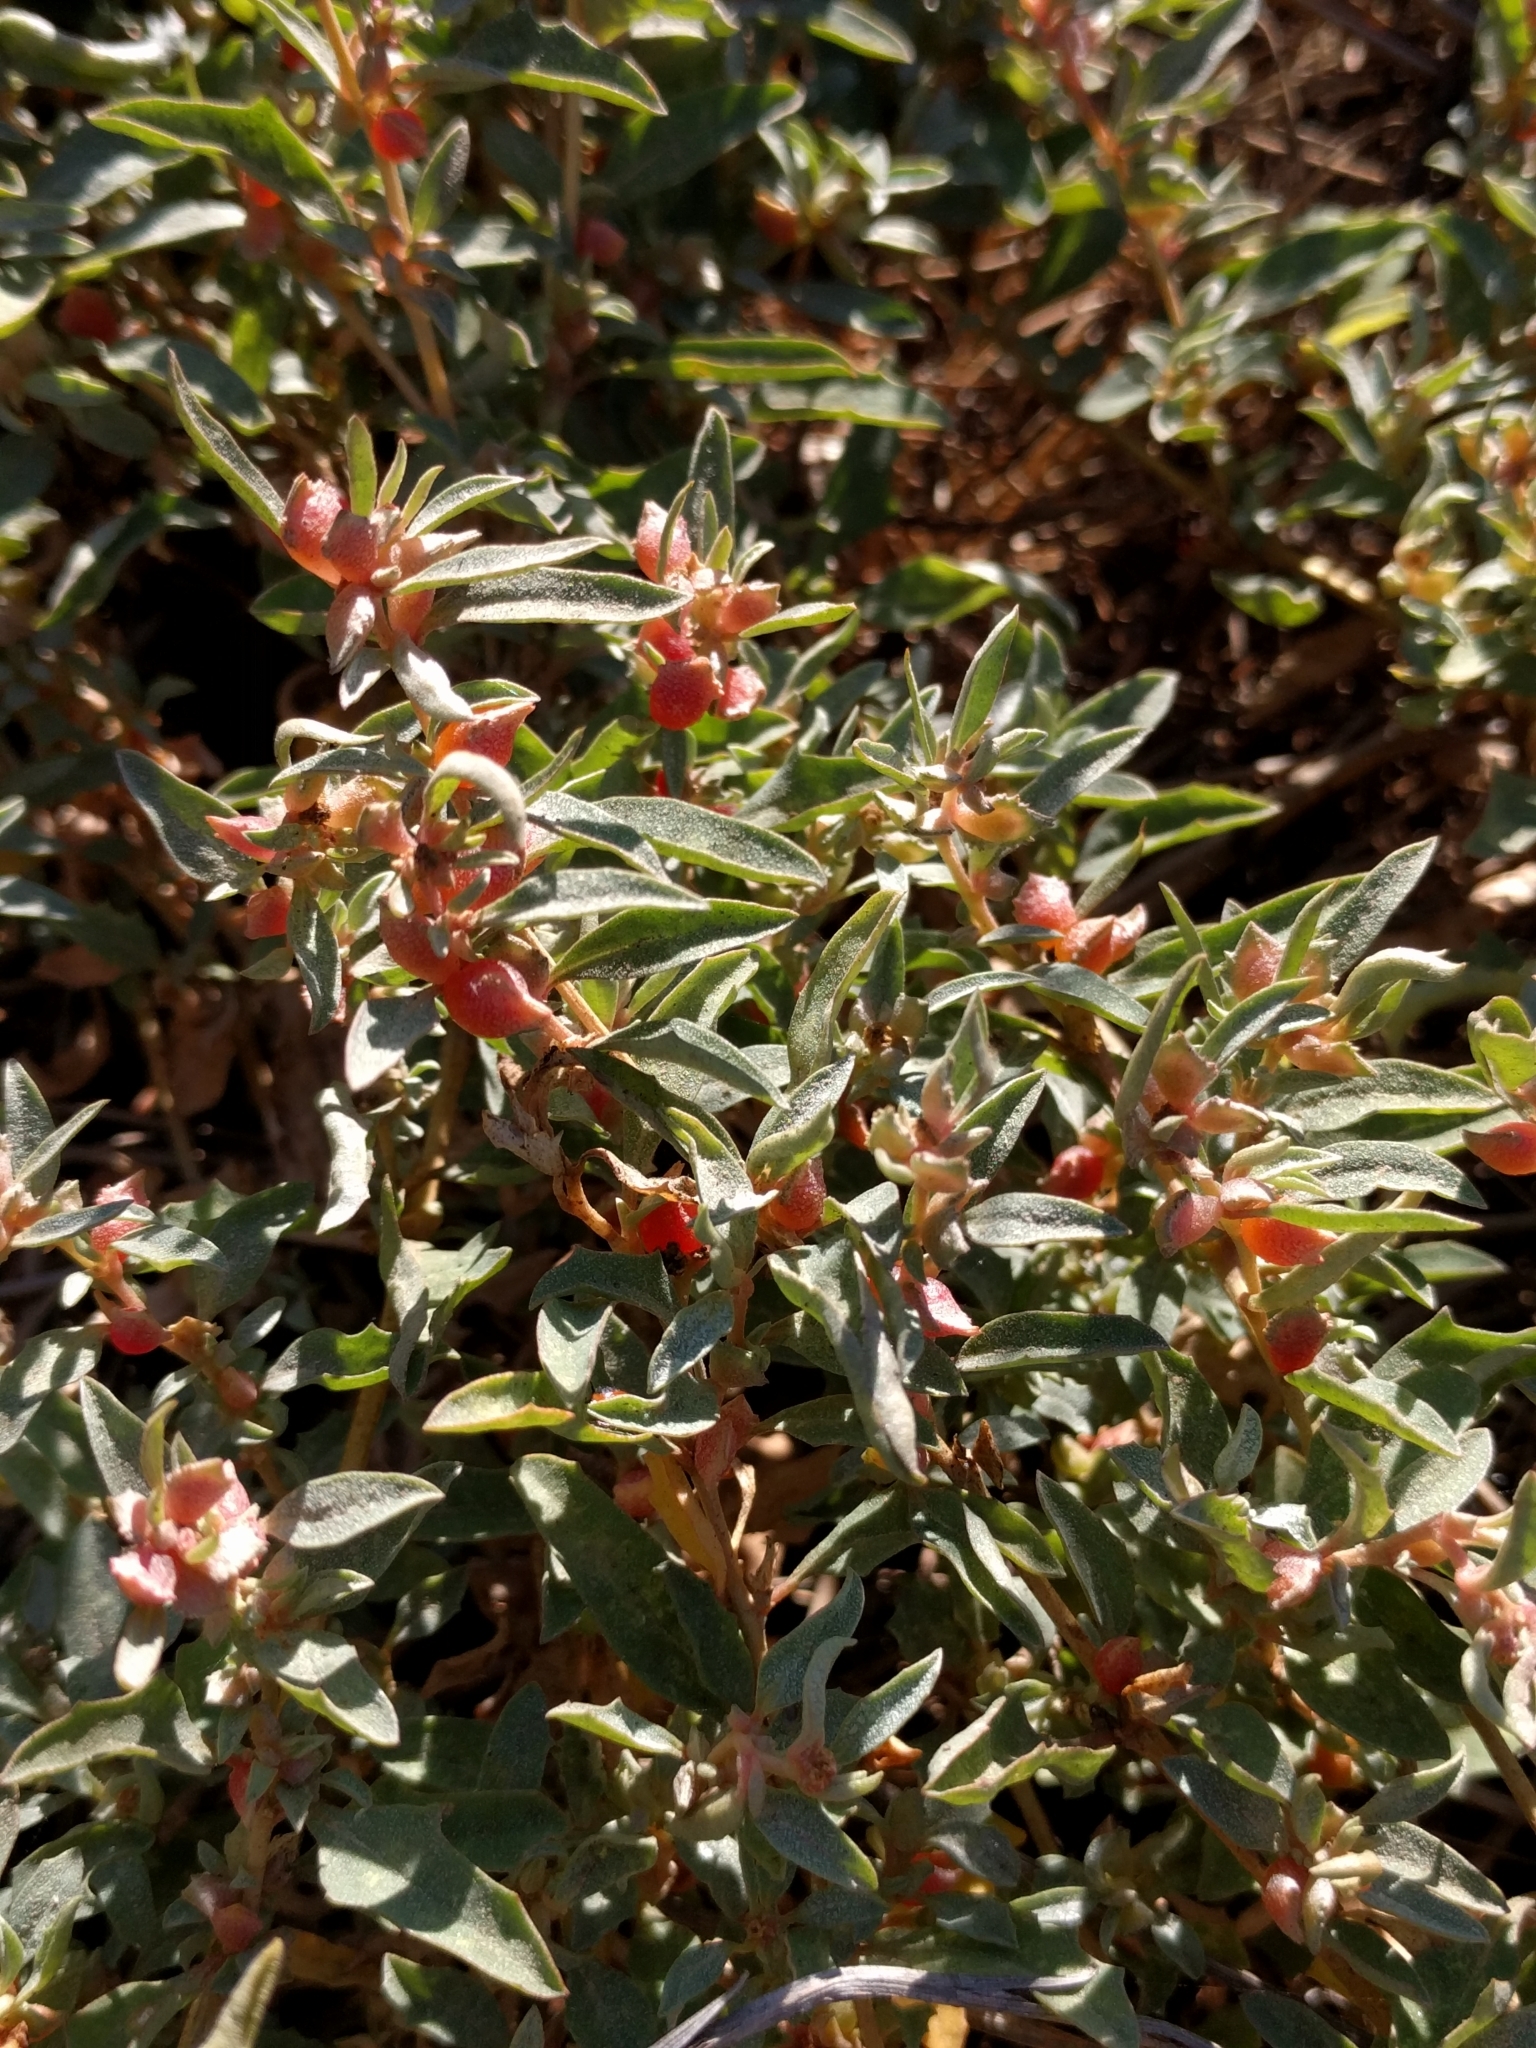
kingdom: Plantae
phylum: Tracheophyta
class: Magnoliopsida
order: Caryophyllales
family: Amaranthaceae
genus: Atriplex
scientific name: Atriplex semibaccata
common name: Australian saltbush
